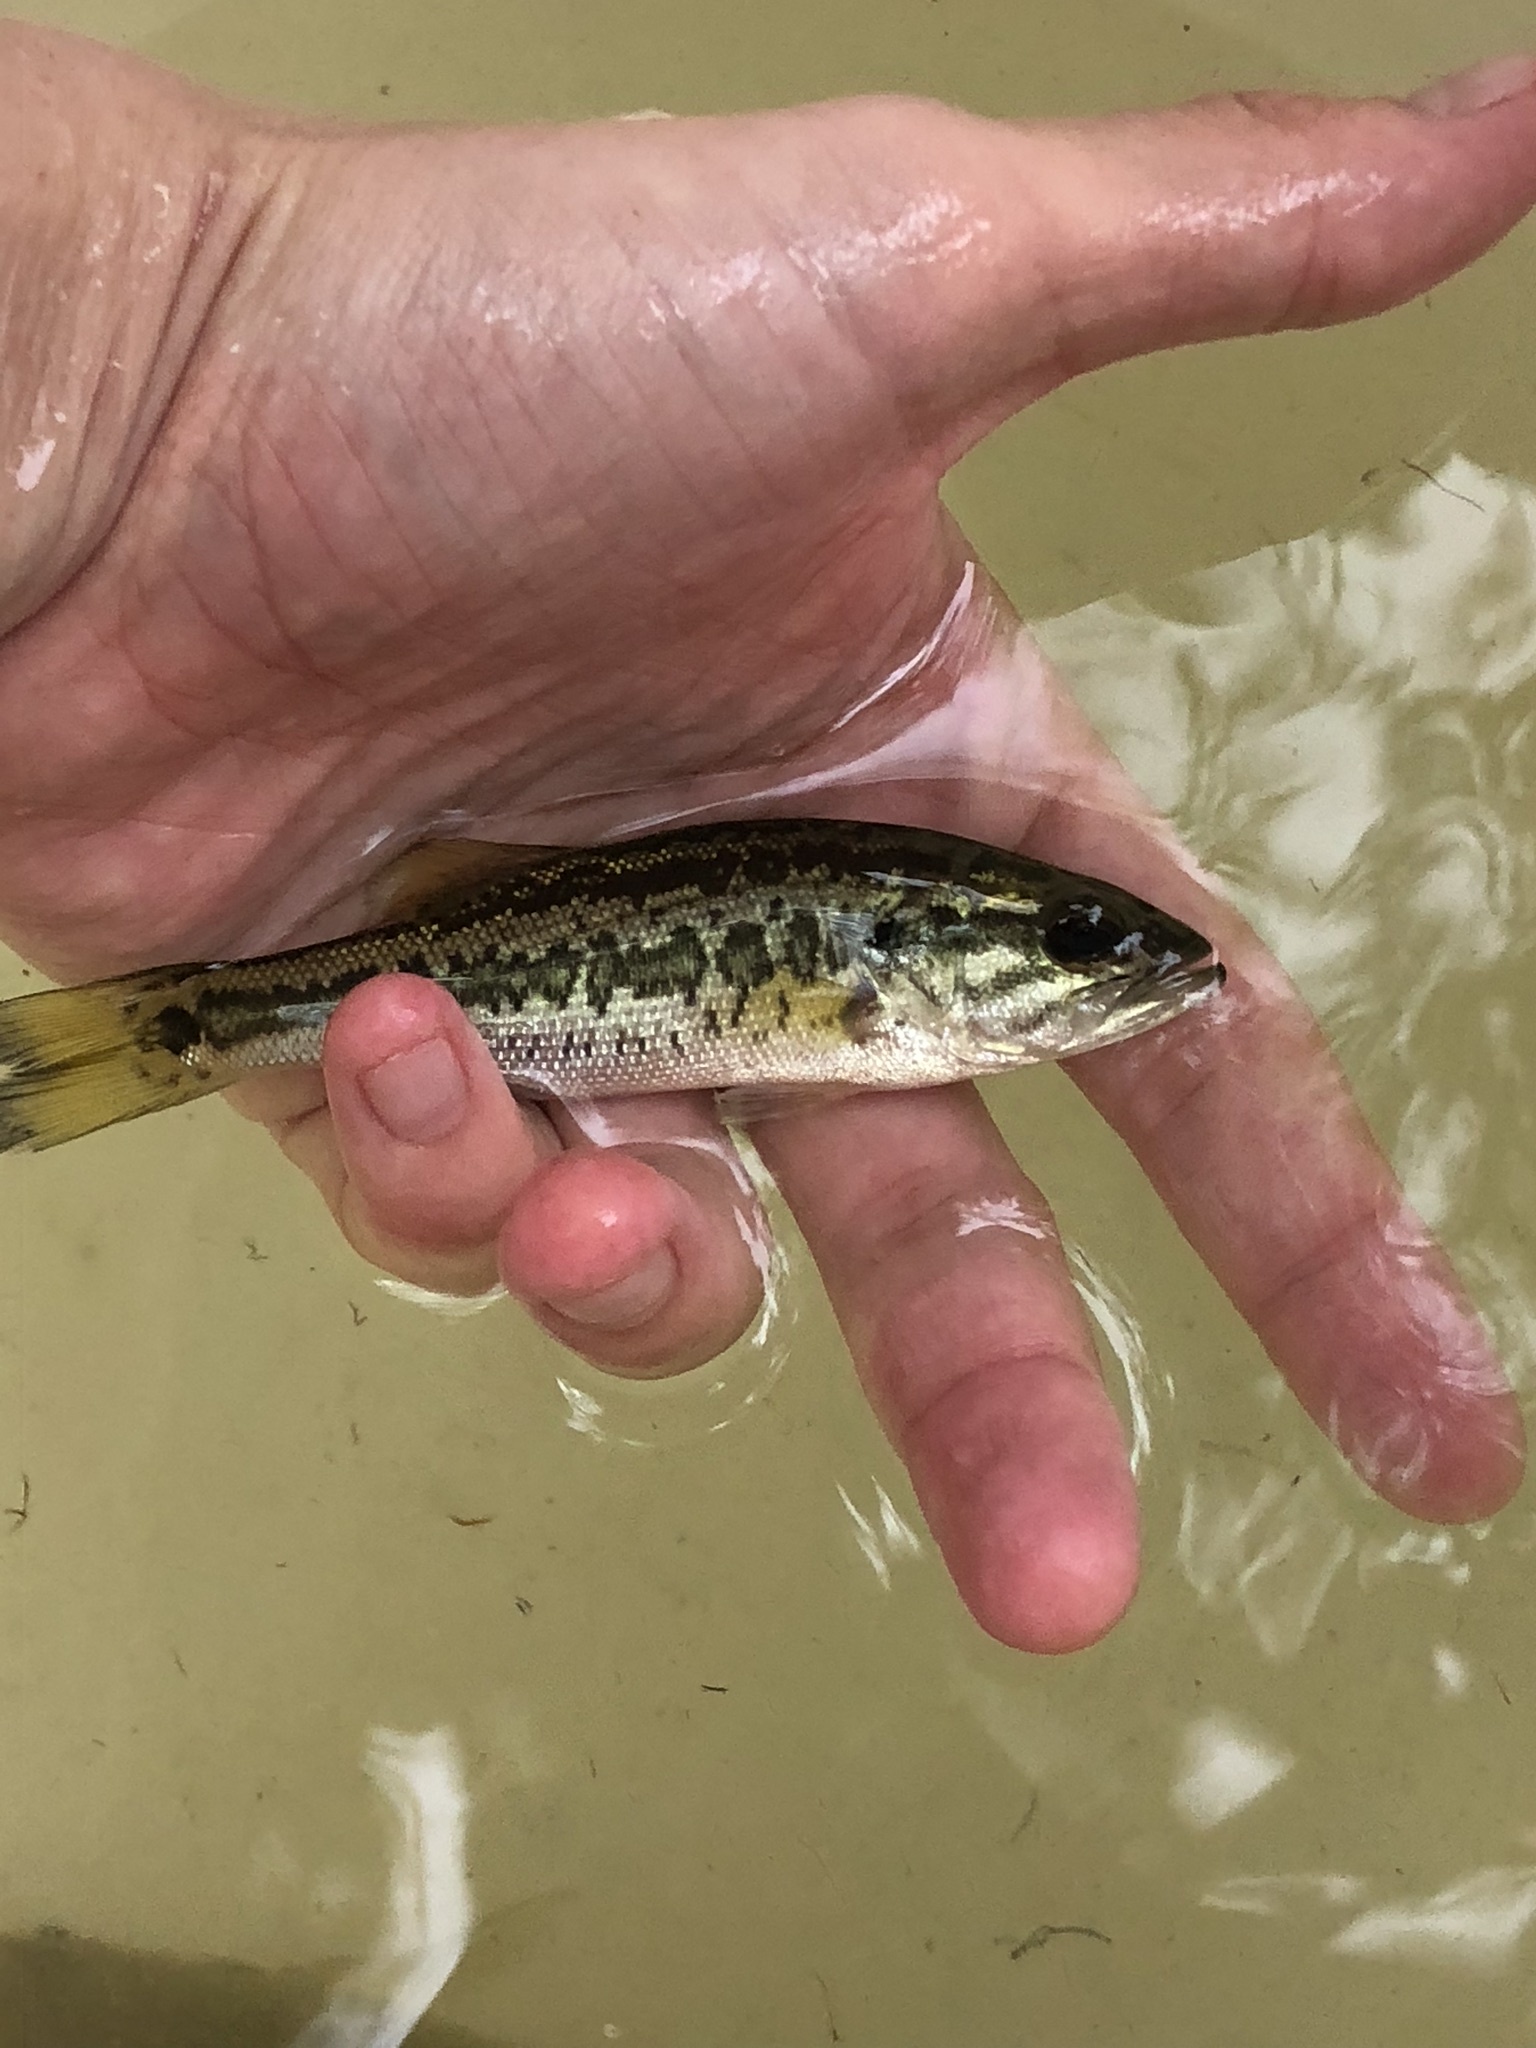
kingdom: Animalia
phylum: Chordata
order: Perciformes
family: Centrarchidae
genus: Micropterus
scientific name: Micropterus
